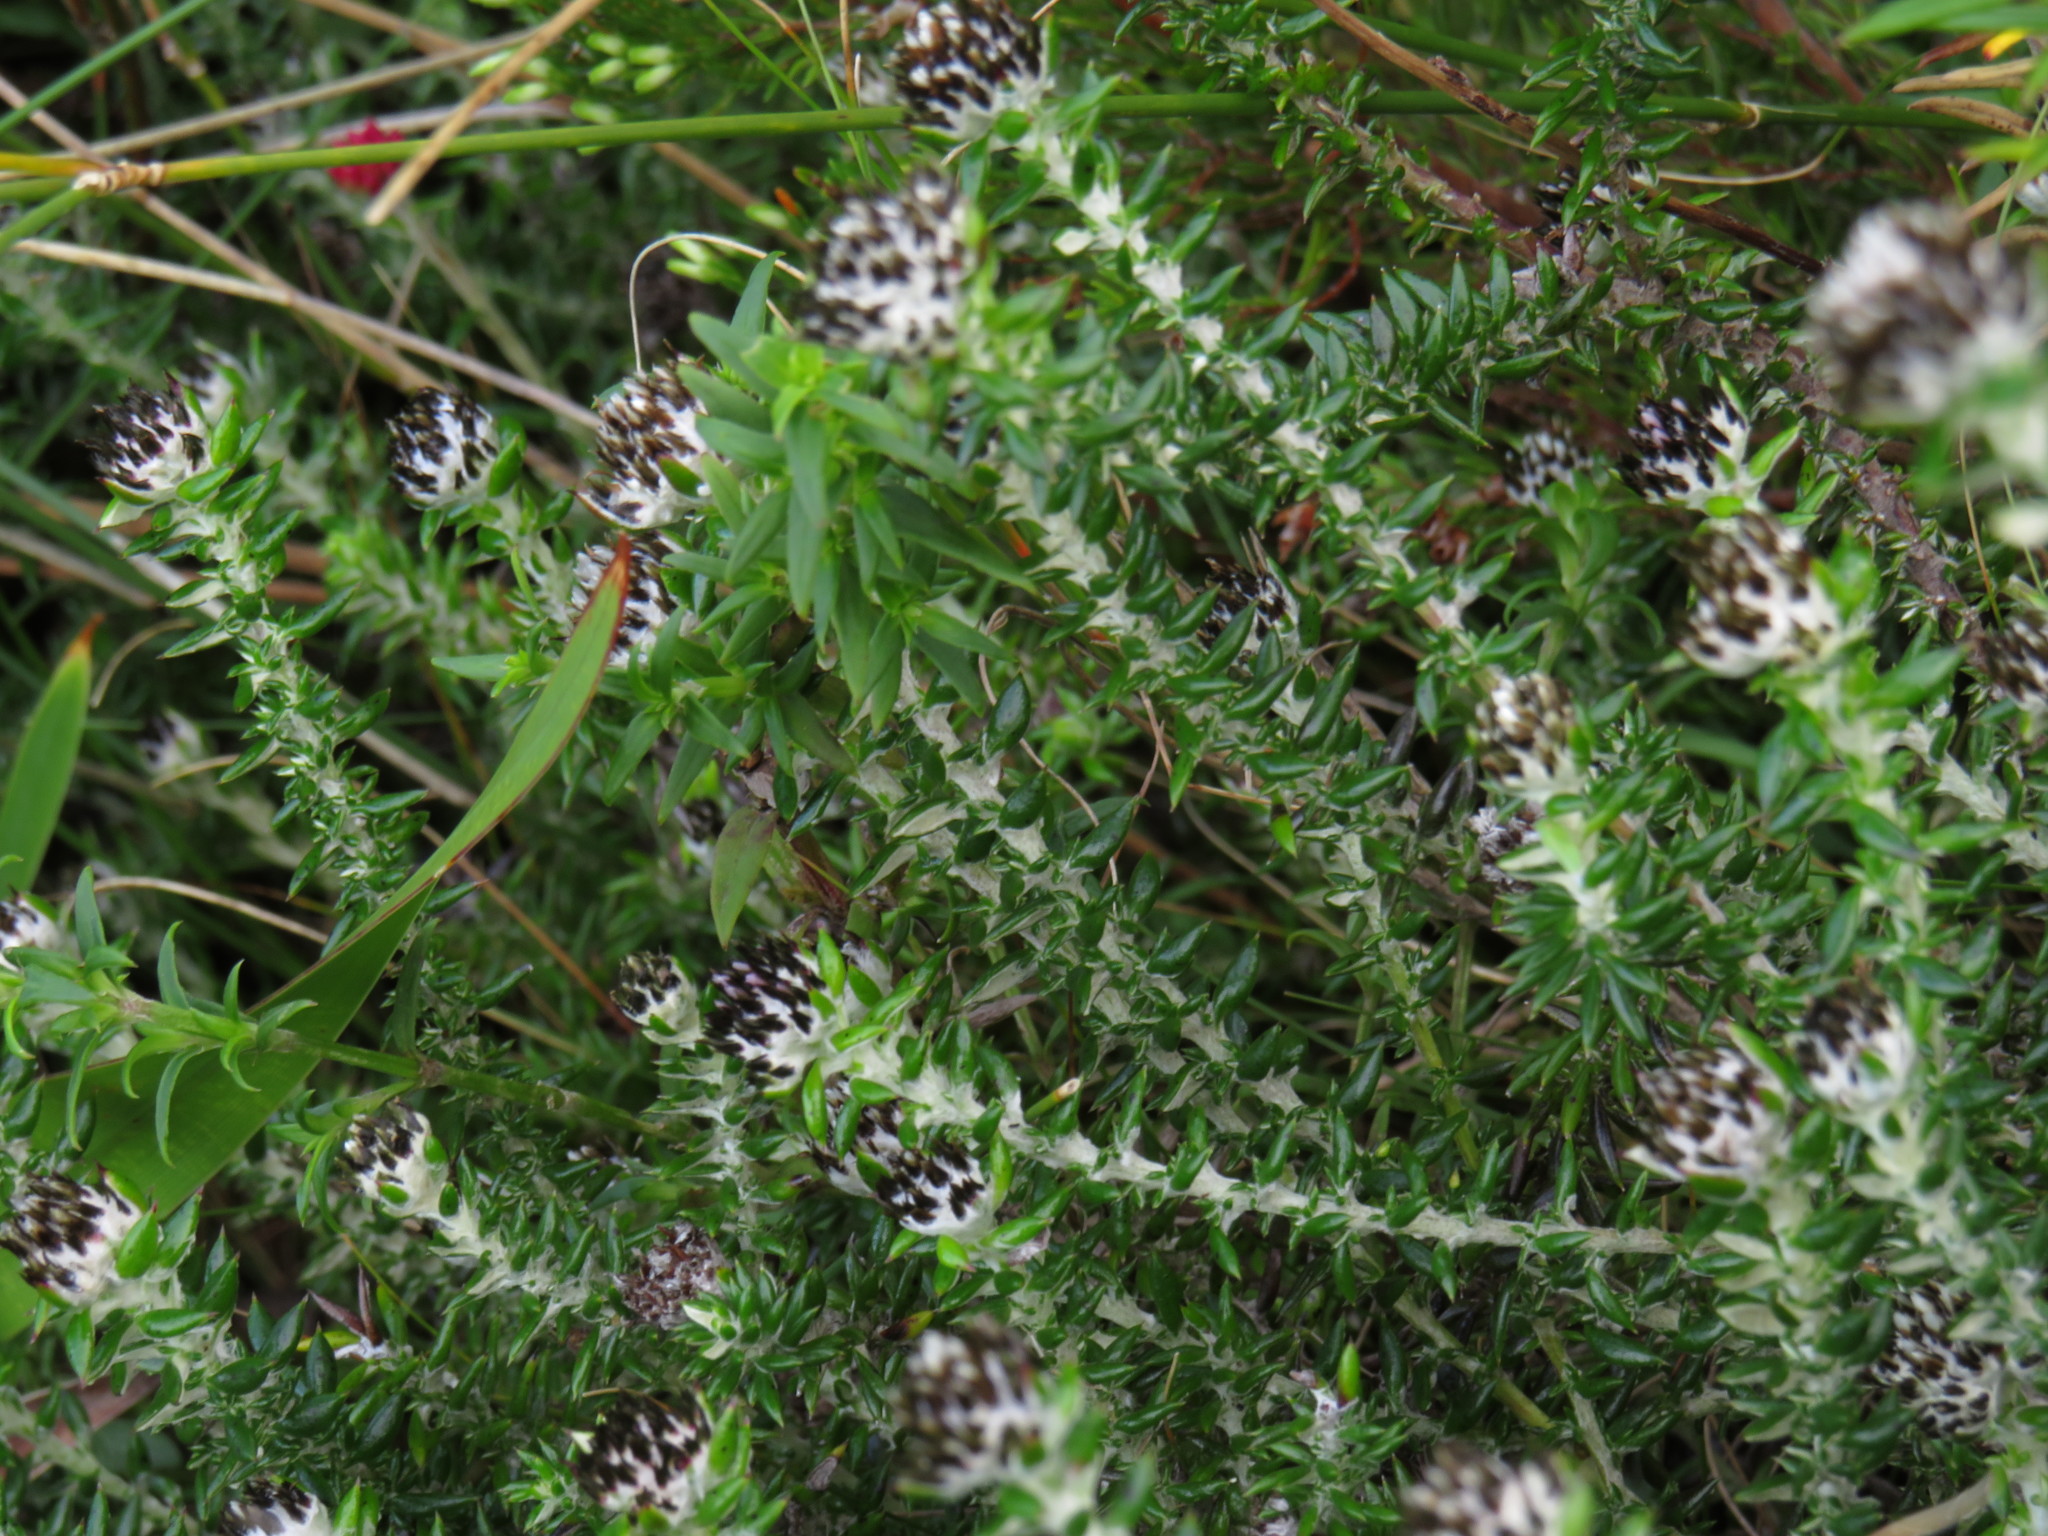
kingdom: Plantae
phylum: Tracheophyta
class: Magnoliopsida
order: Asterales
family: Asteraceae
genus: Metalasia
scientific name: Metalasia divergens
